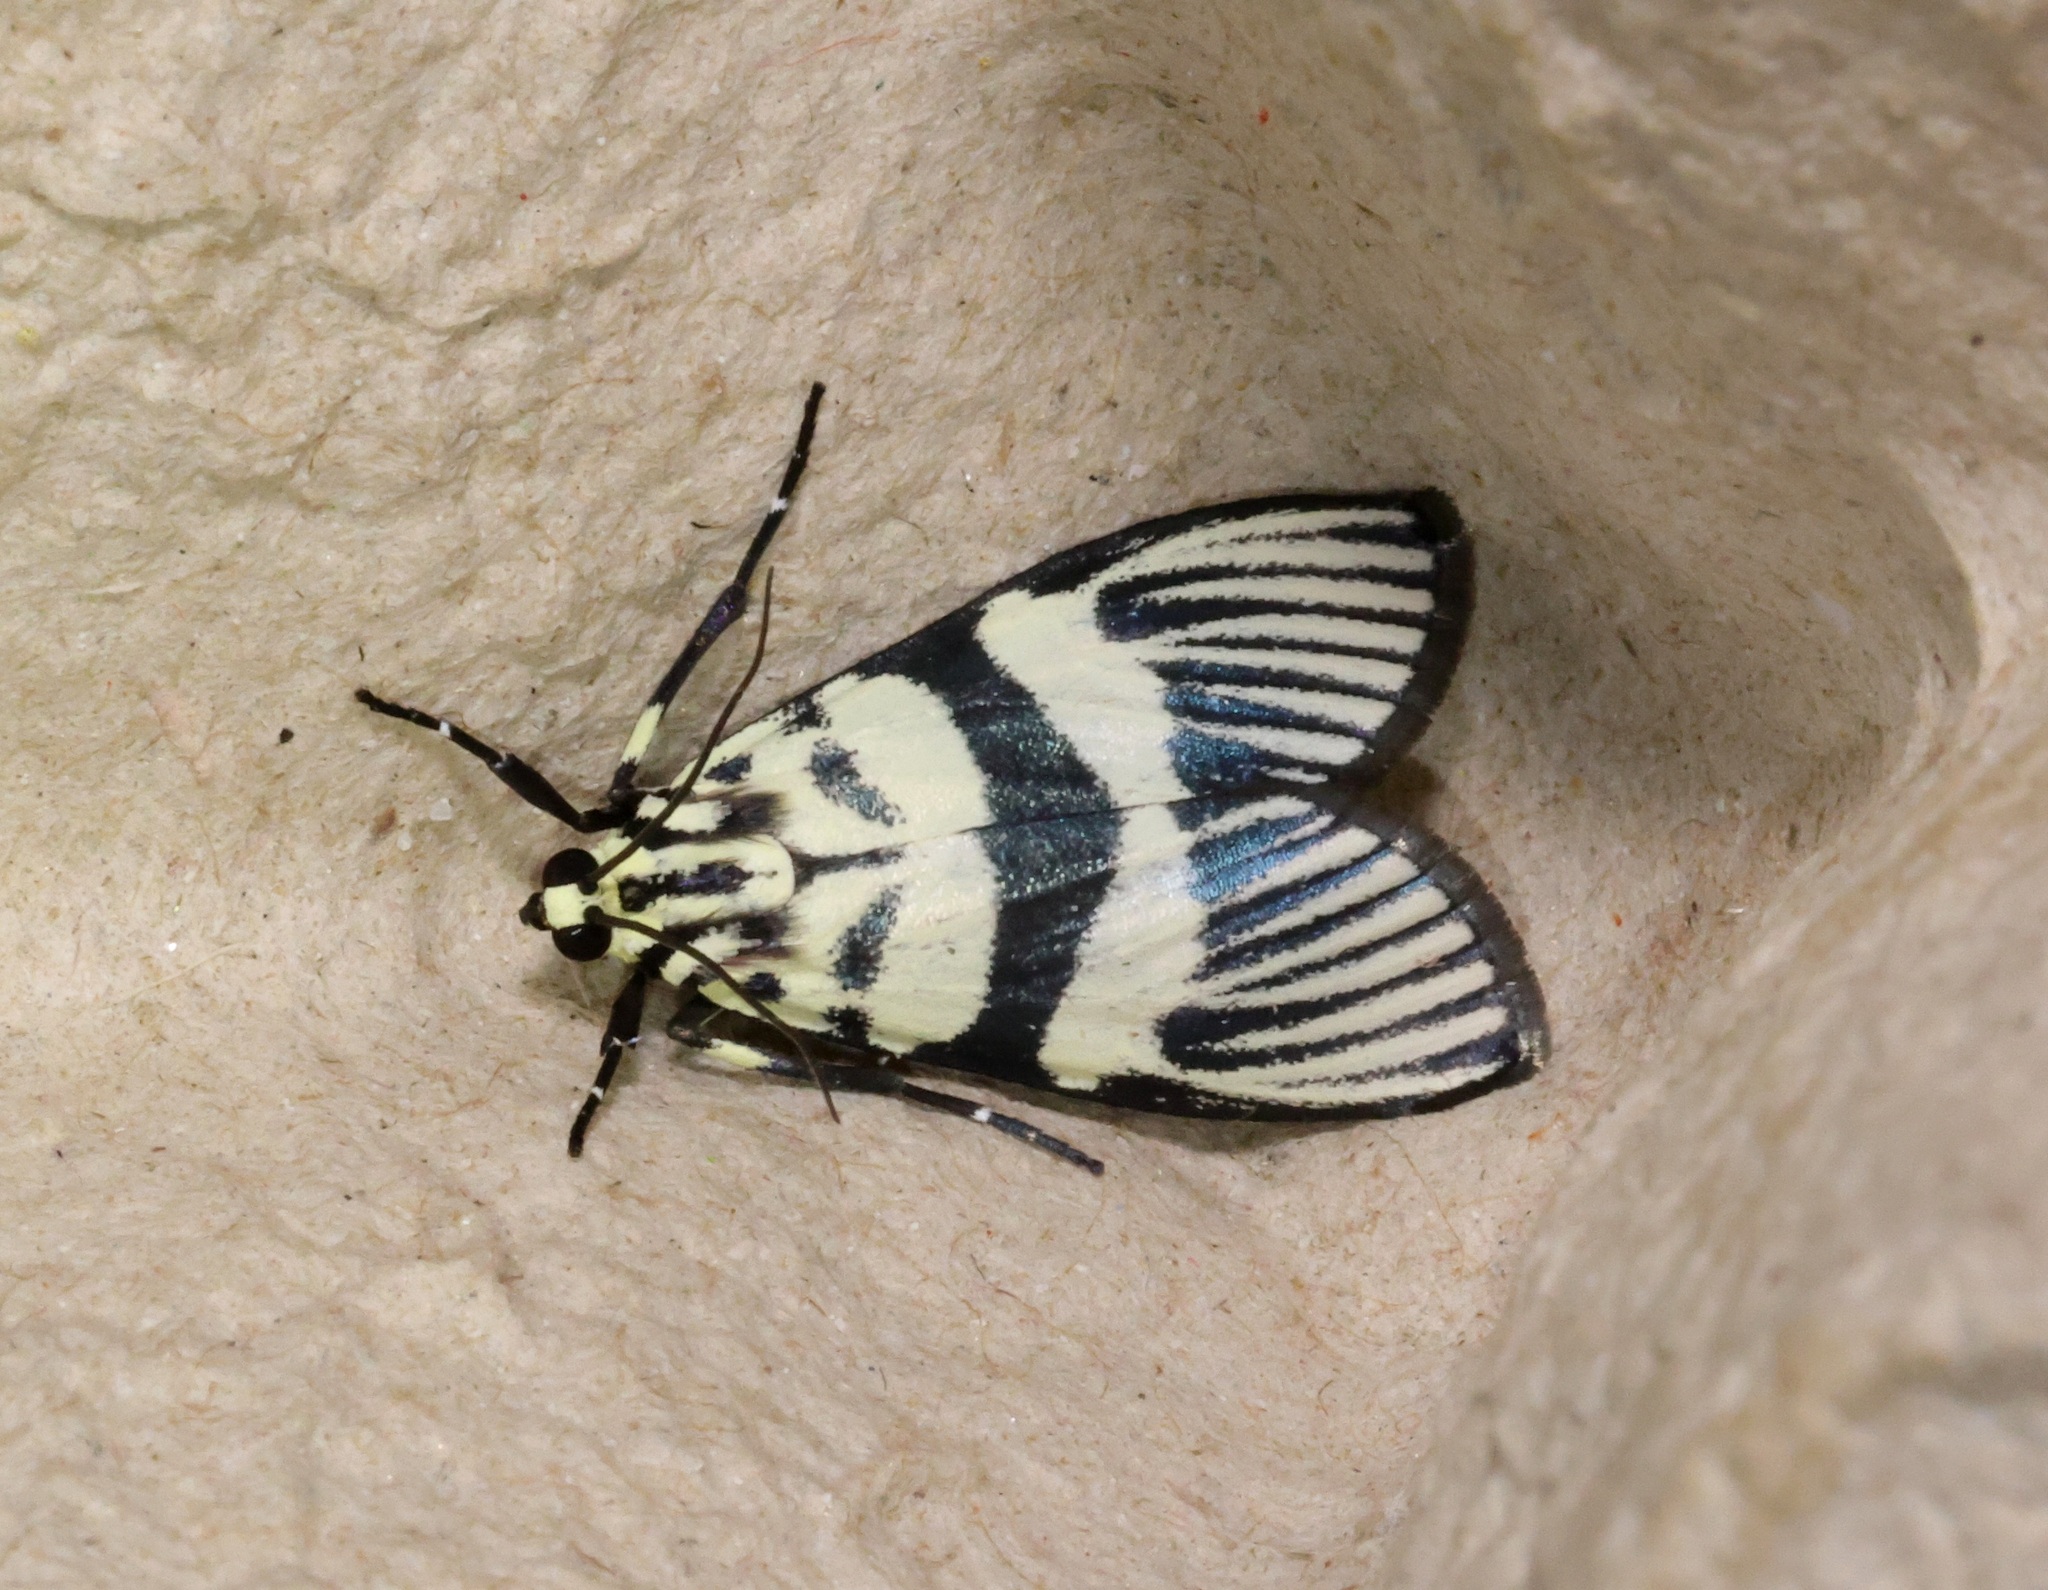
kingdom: Animalia
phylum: Arthropoda
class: Insecta
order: Lepidoptera
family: Crambidae
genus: Heortia
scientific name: Heortia vitessoides
